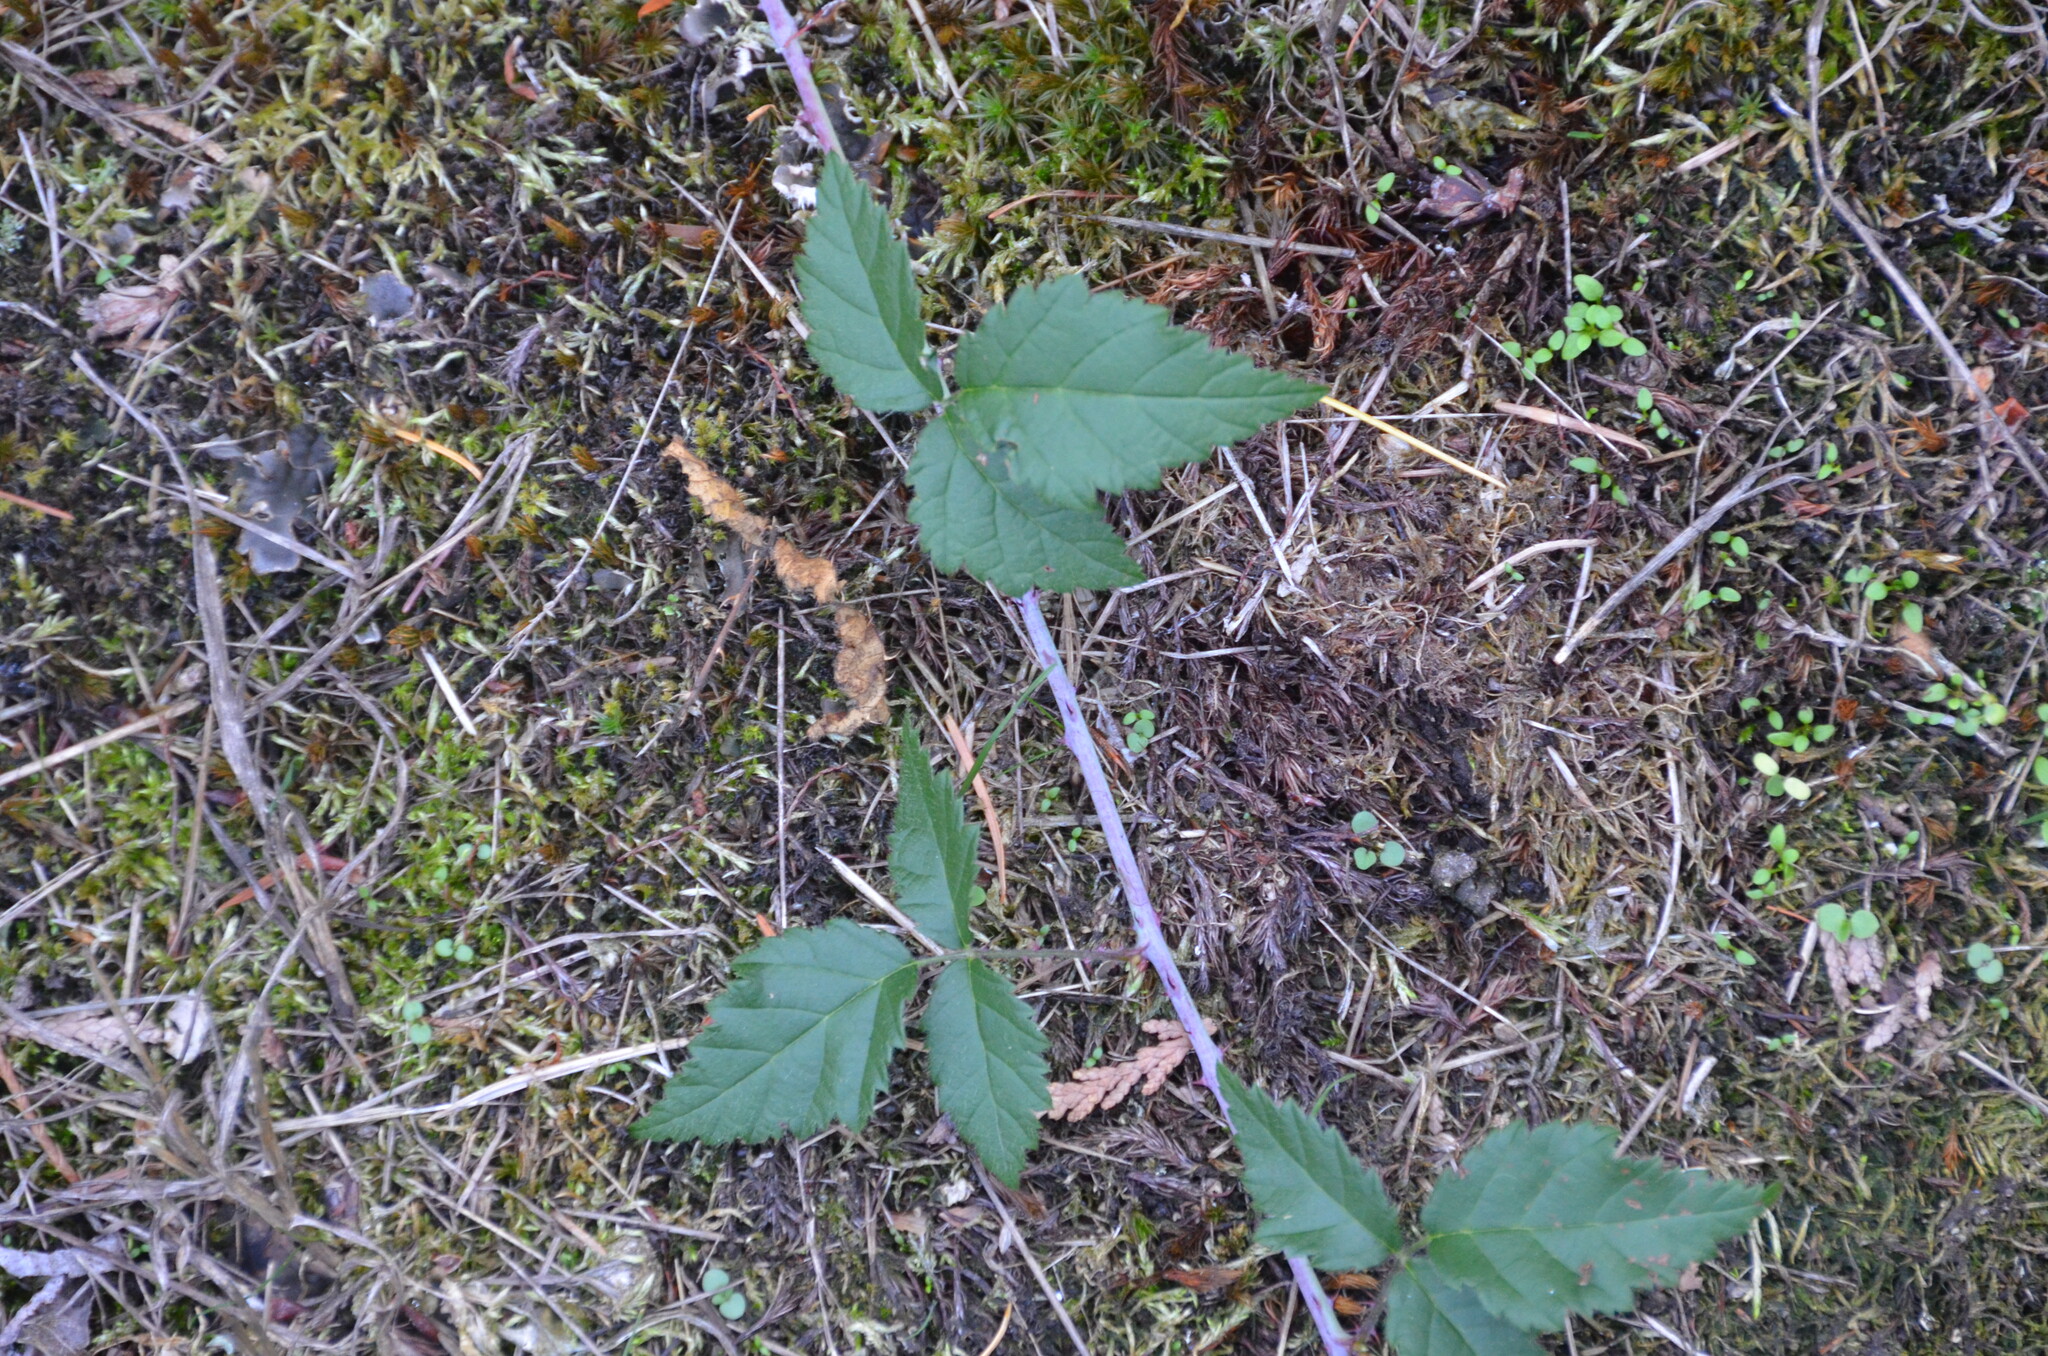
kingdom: Plantae
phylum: Tracheophyta
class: Magnoliopsida
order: Rosales
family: Rosaceae
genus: Rubus
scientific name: Rubus ursinus
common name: Pacific blackberry
